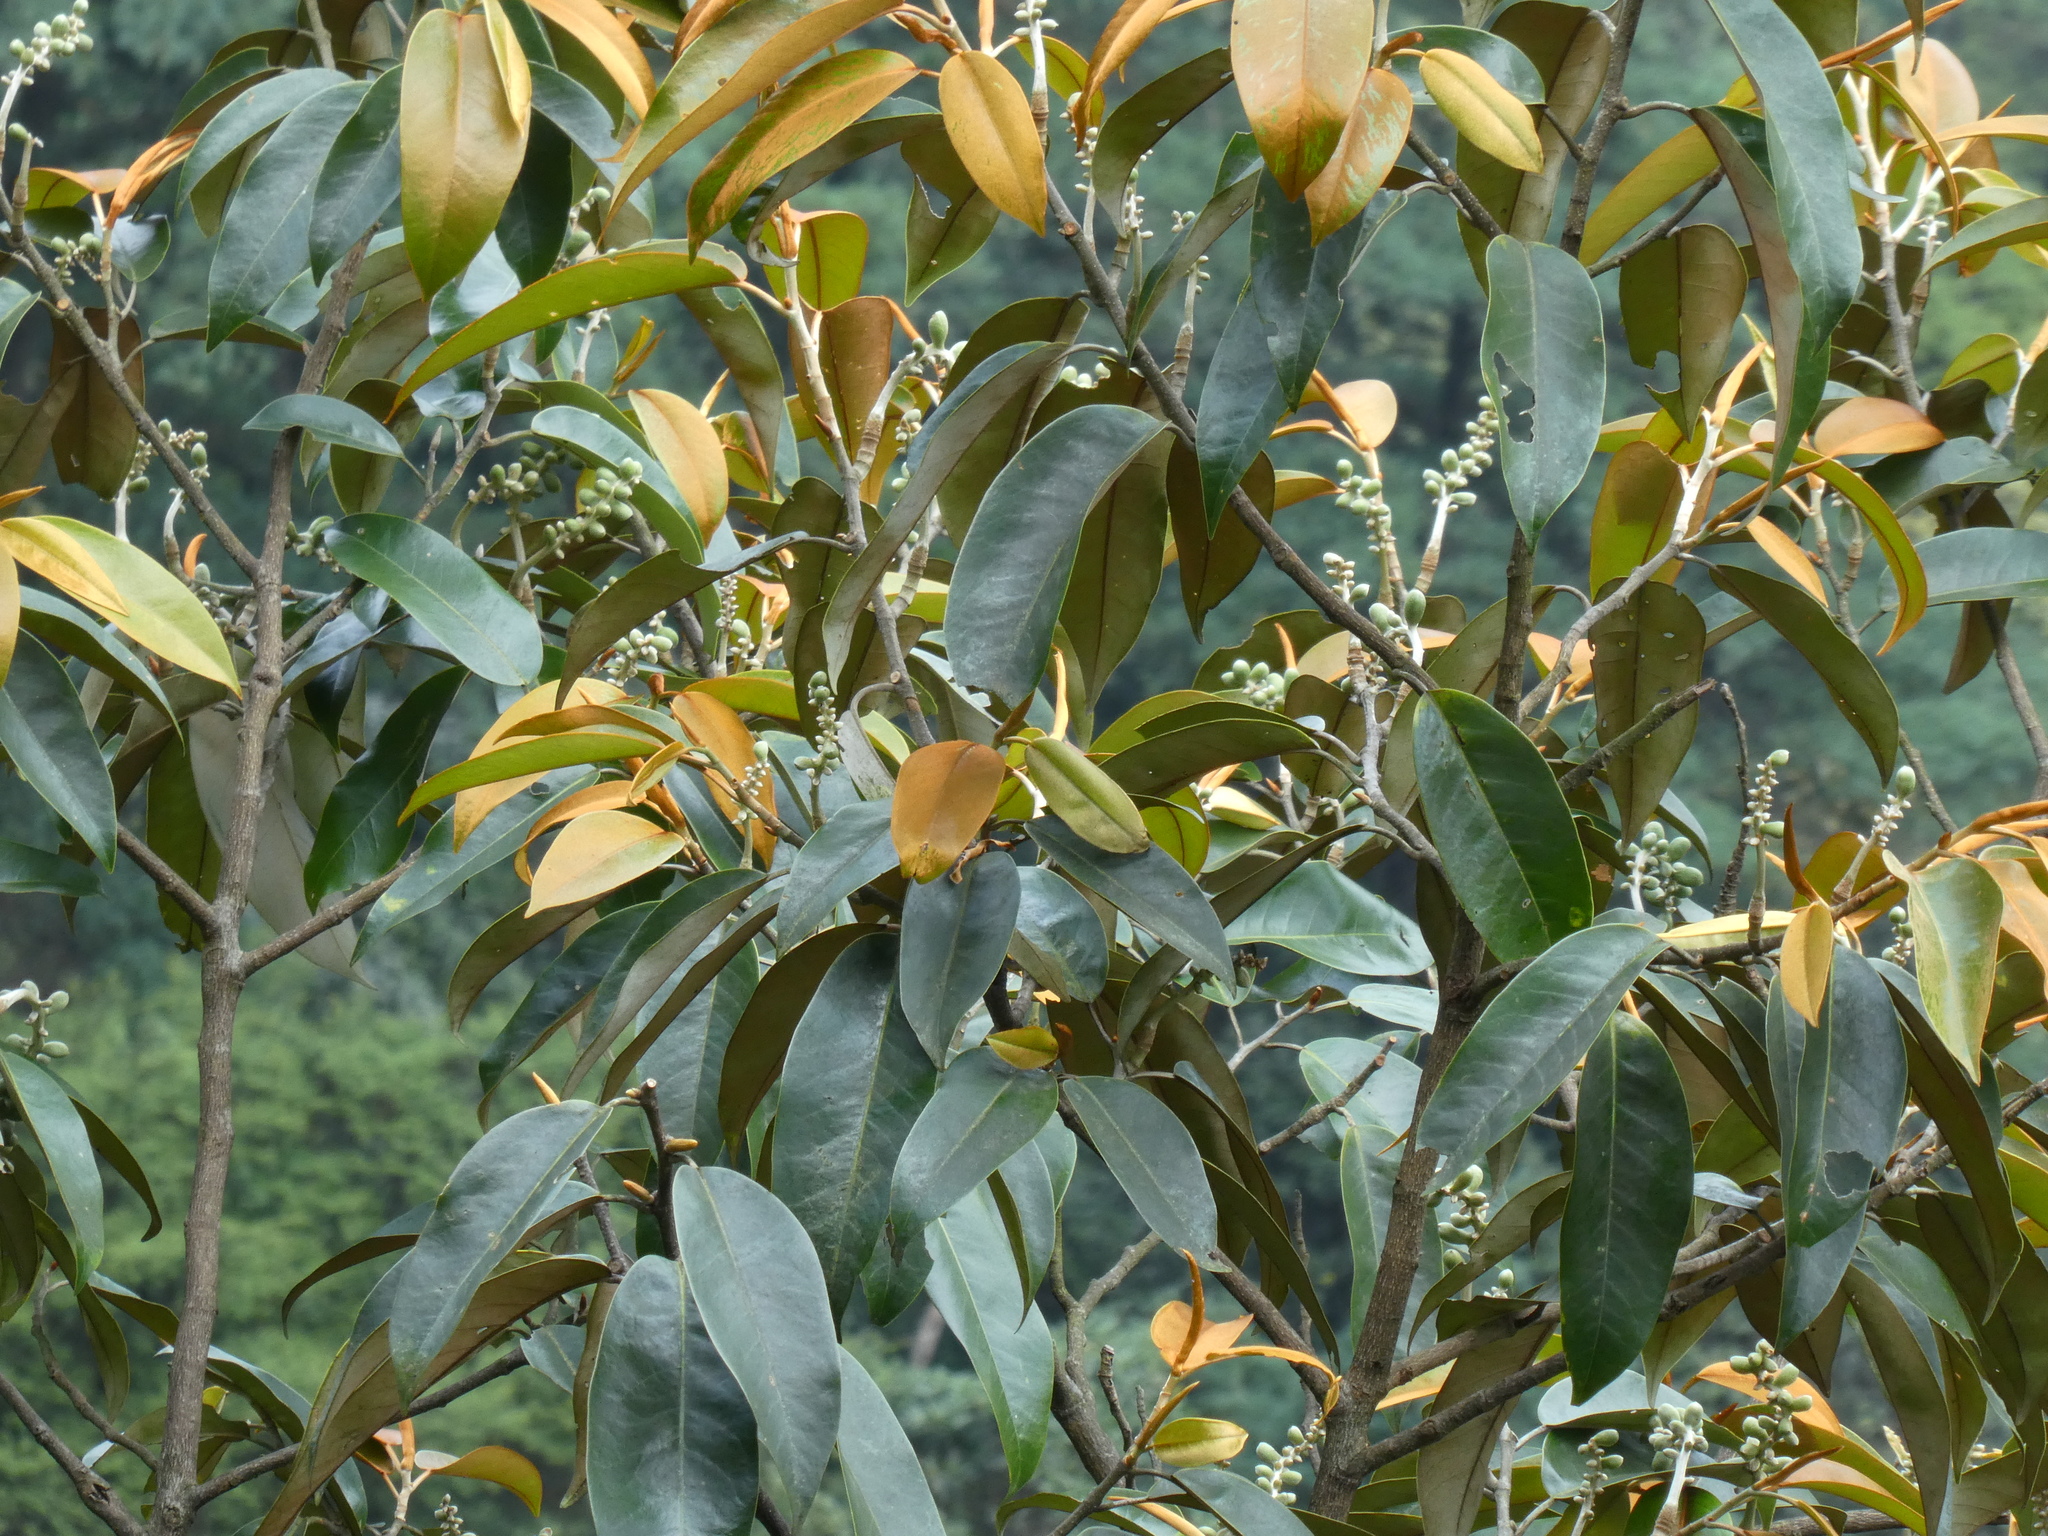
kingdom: Plantae
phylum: Tracheophyta
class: Magnoliopsida
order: Magnoliales
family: Magnoliaceae
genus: Magnolia
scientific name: Magnolia foveolata
